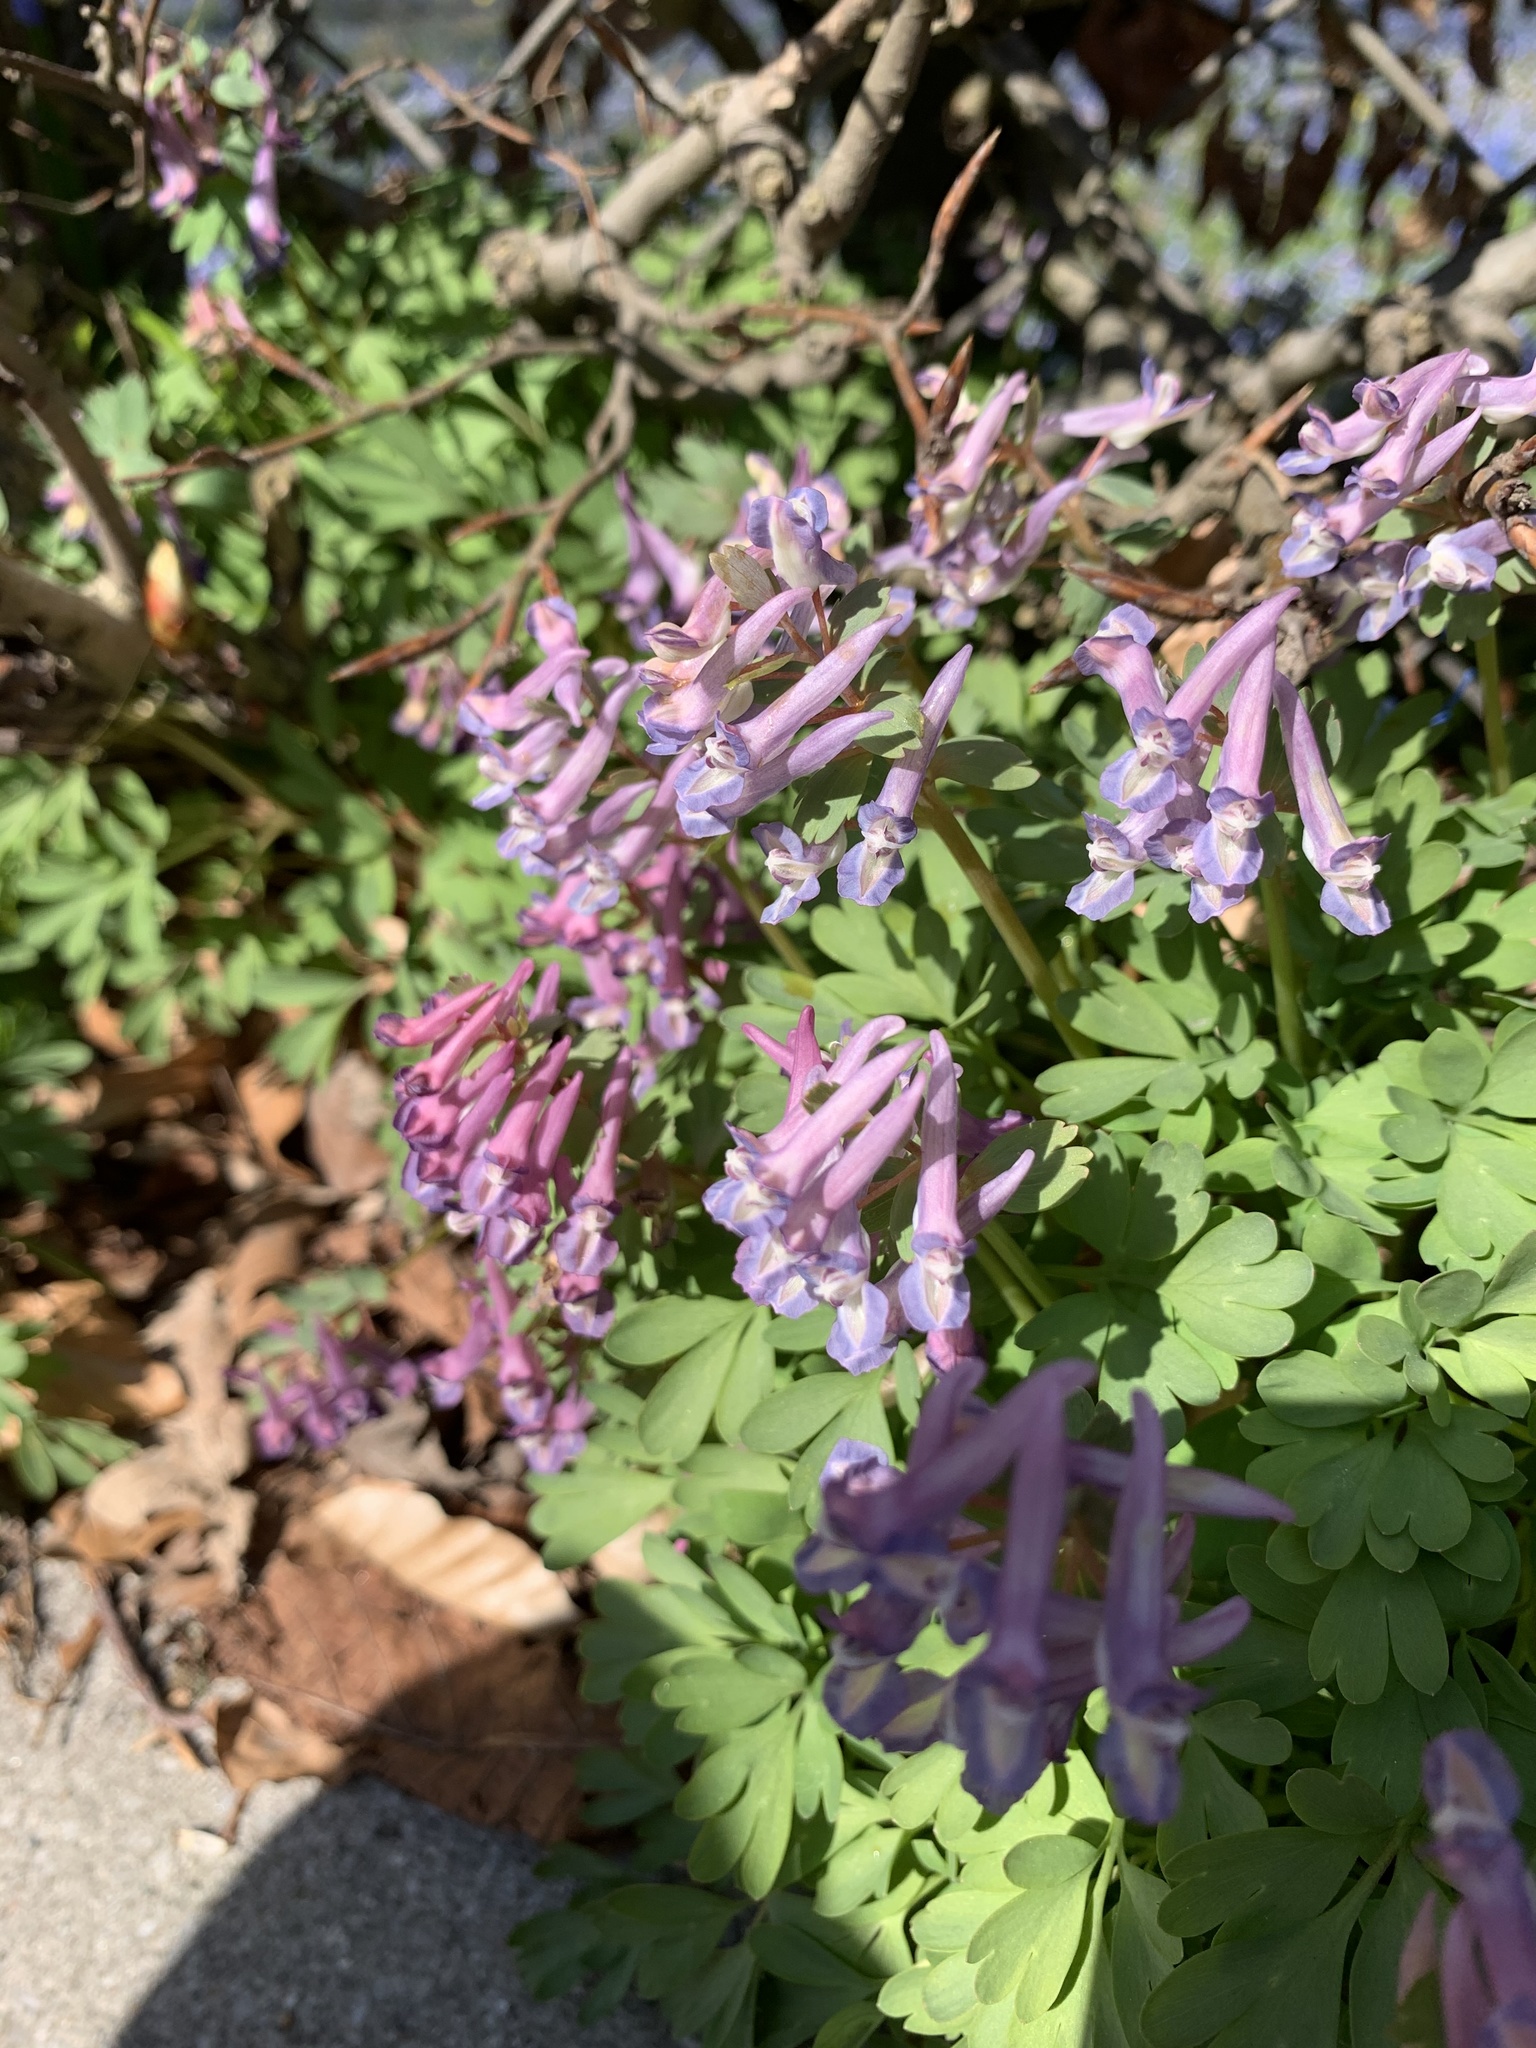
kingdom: Plantae
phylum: Tracheophyta
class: Magnoliopsida
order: Ranunculales
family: Papaveraceae
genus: Corydalis
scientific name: Corydalis solida
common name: Bird-in-a-bush
